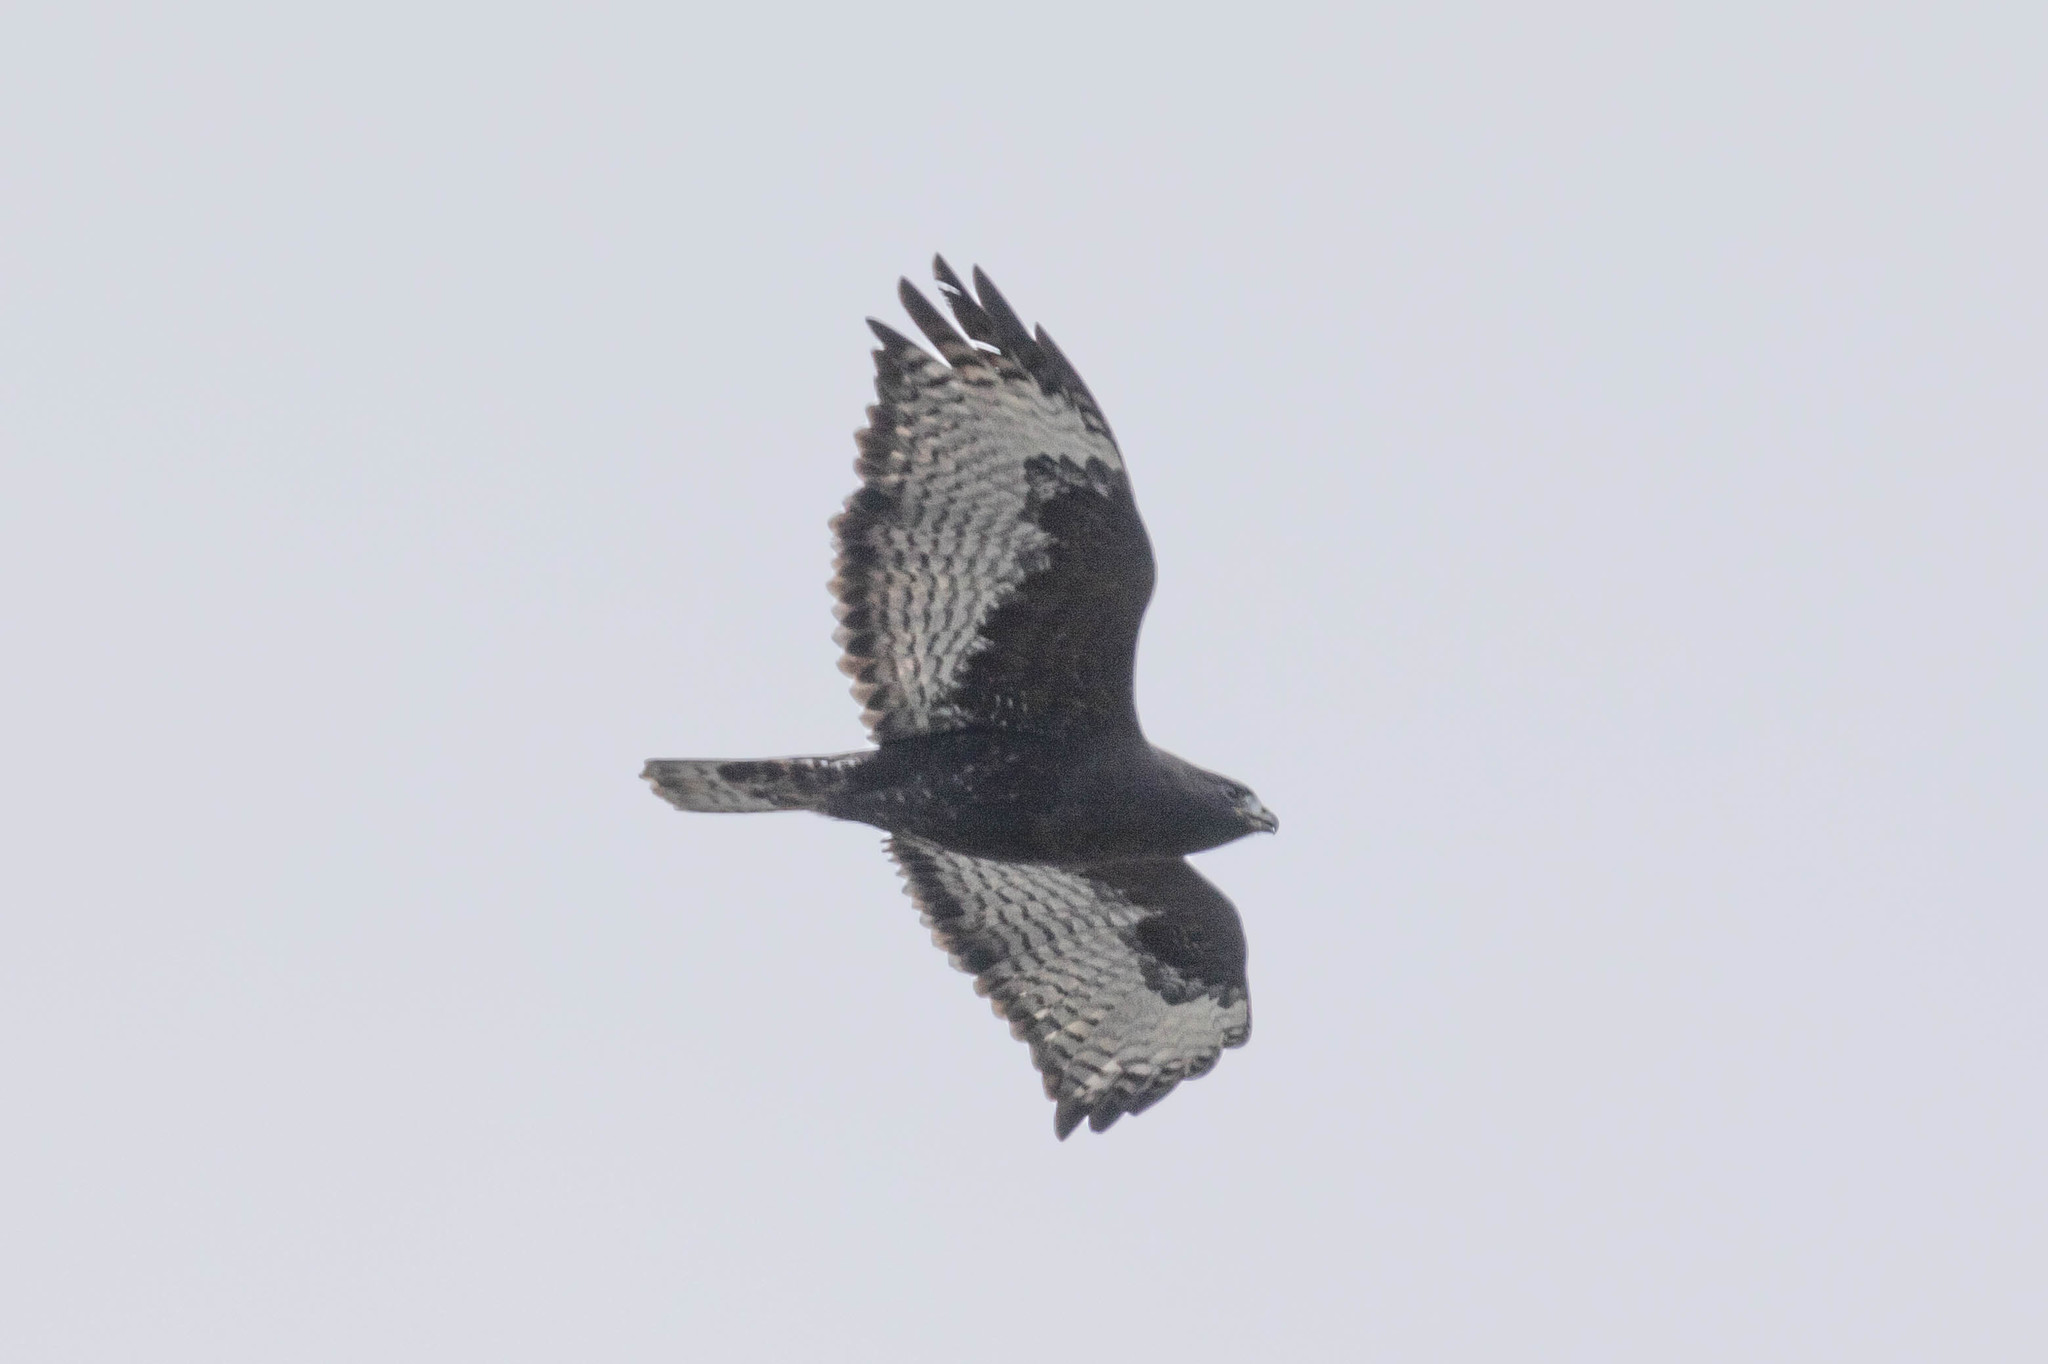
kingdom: Animalia
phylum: Chordata
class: Aves
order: Accipitriformes
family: Accipitridae
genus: Buteo
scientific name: Buteo jamaicensis
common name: Red-tailed hawk
